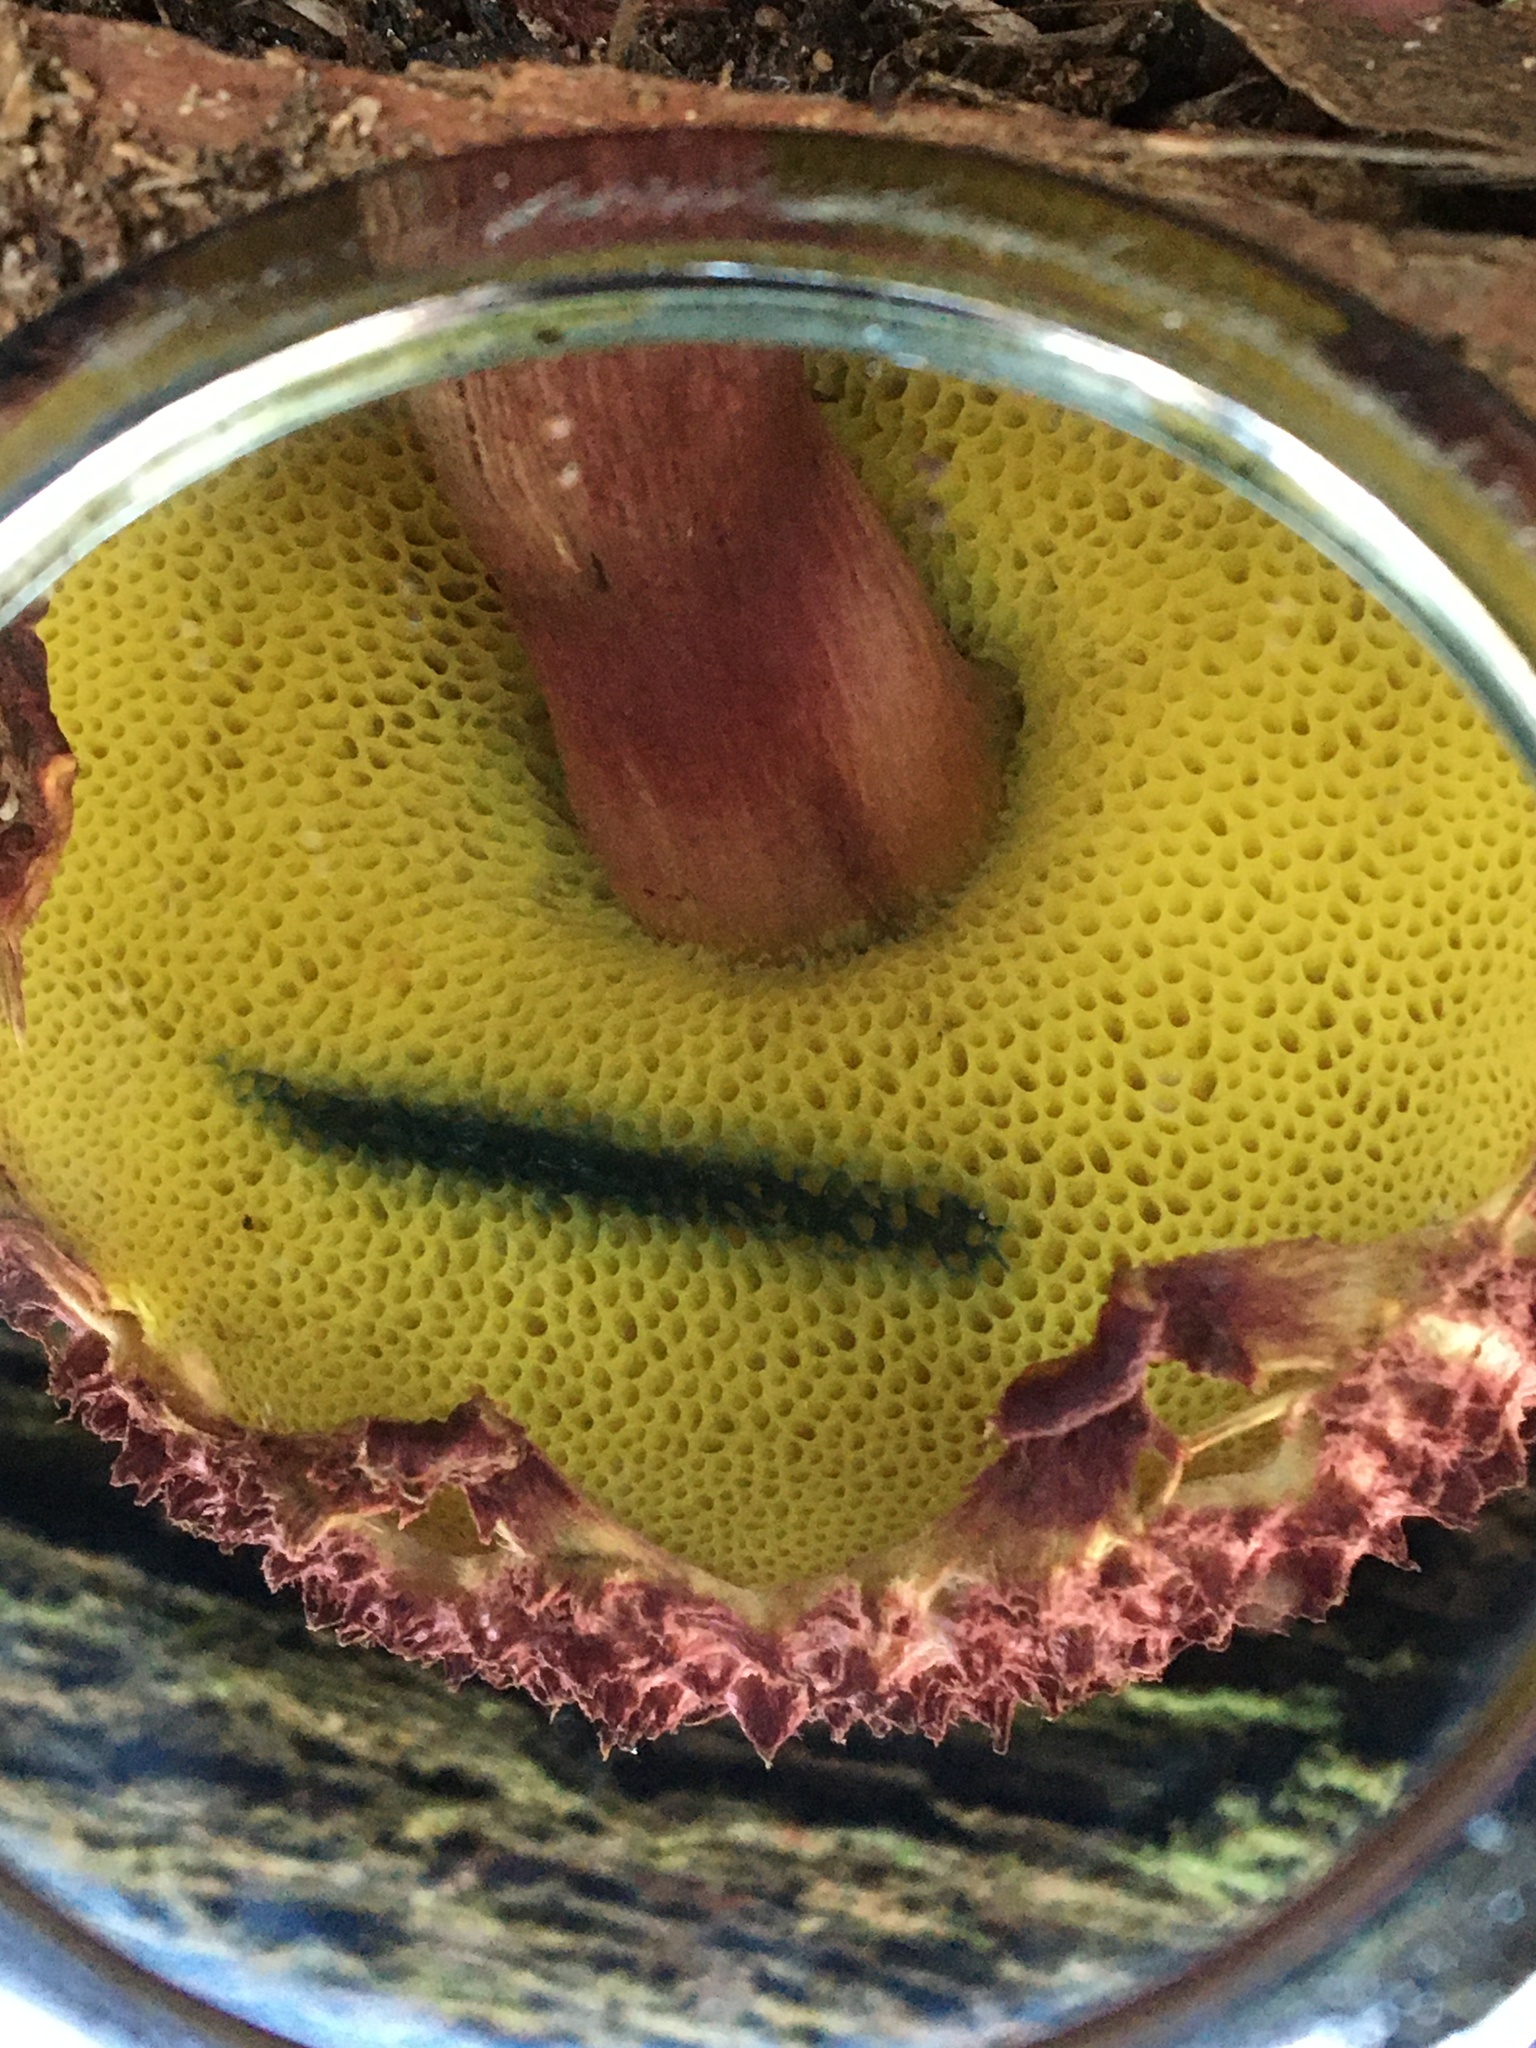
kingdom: Fungi
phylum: Basidiomycota
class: Agaricomycetes
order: Boletales
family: Boletaceae
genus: Boletellus
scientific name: Boletellus emodensis
